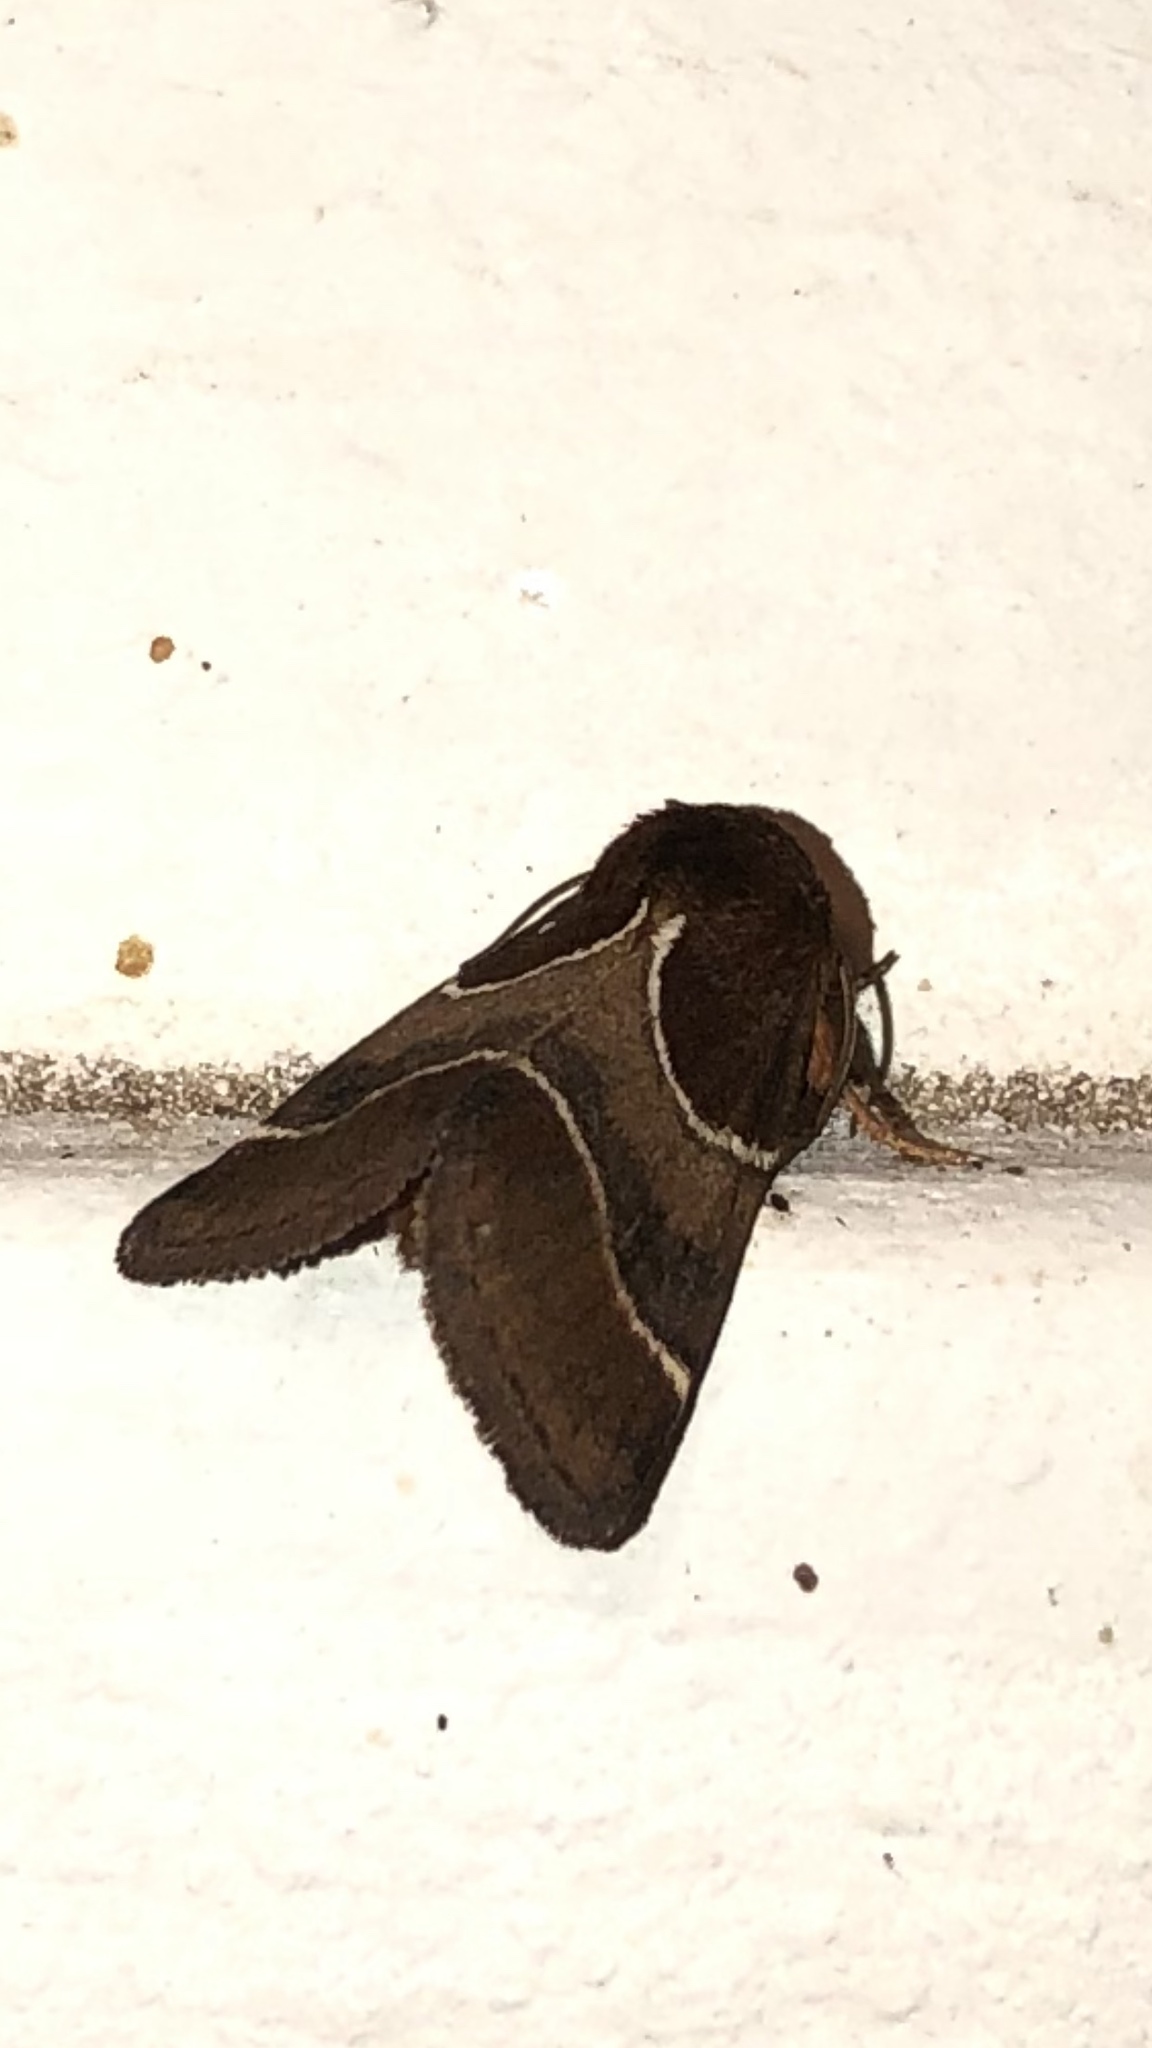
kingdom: Animalia
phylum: Arthropoda
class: Insecta
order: Lepidoptera
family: Noctuidae
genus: Schinia
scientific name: Schinia arcigera
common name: Arcigera flower moth
